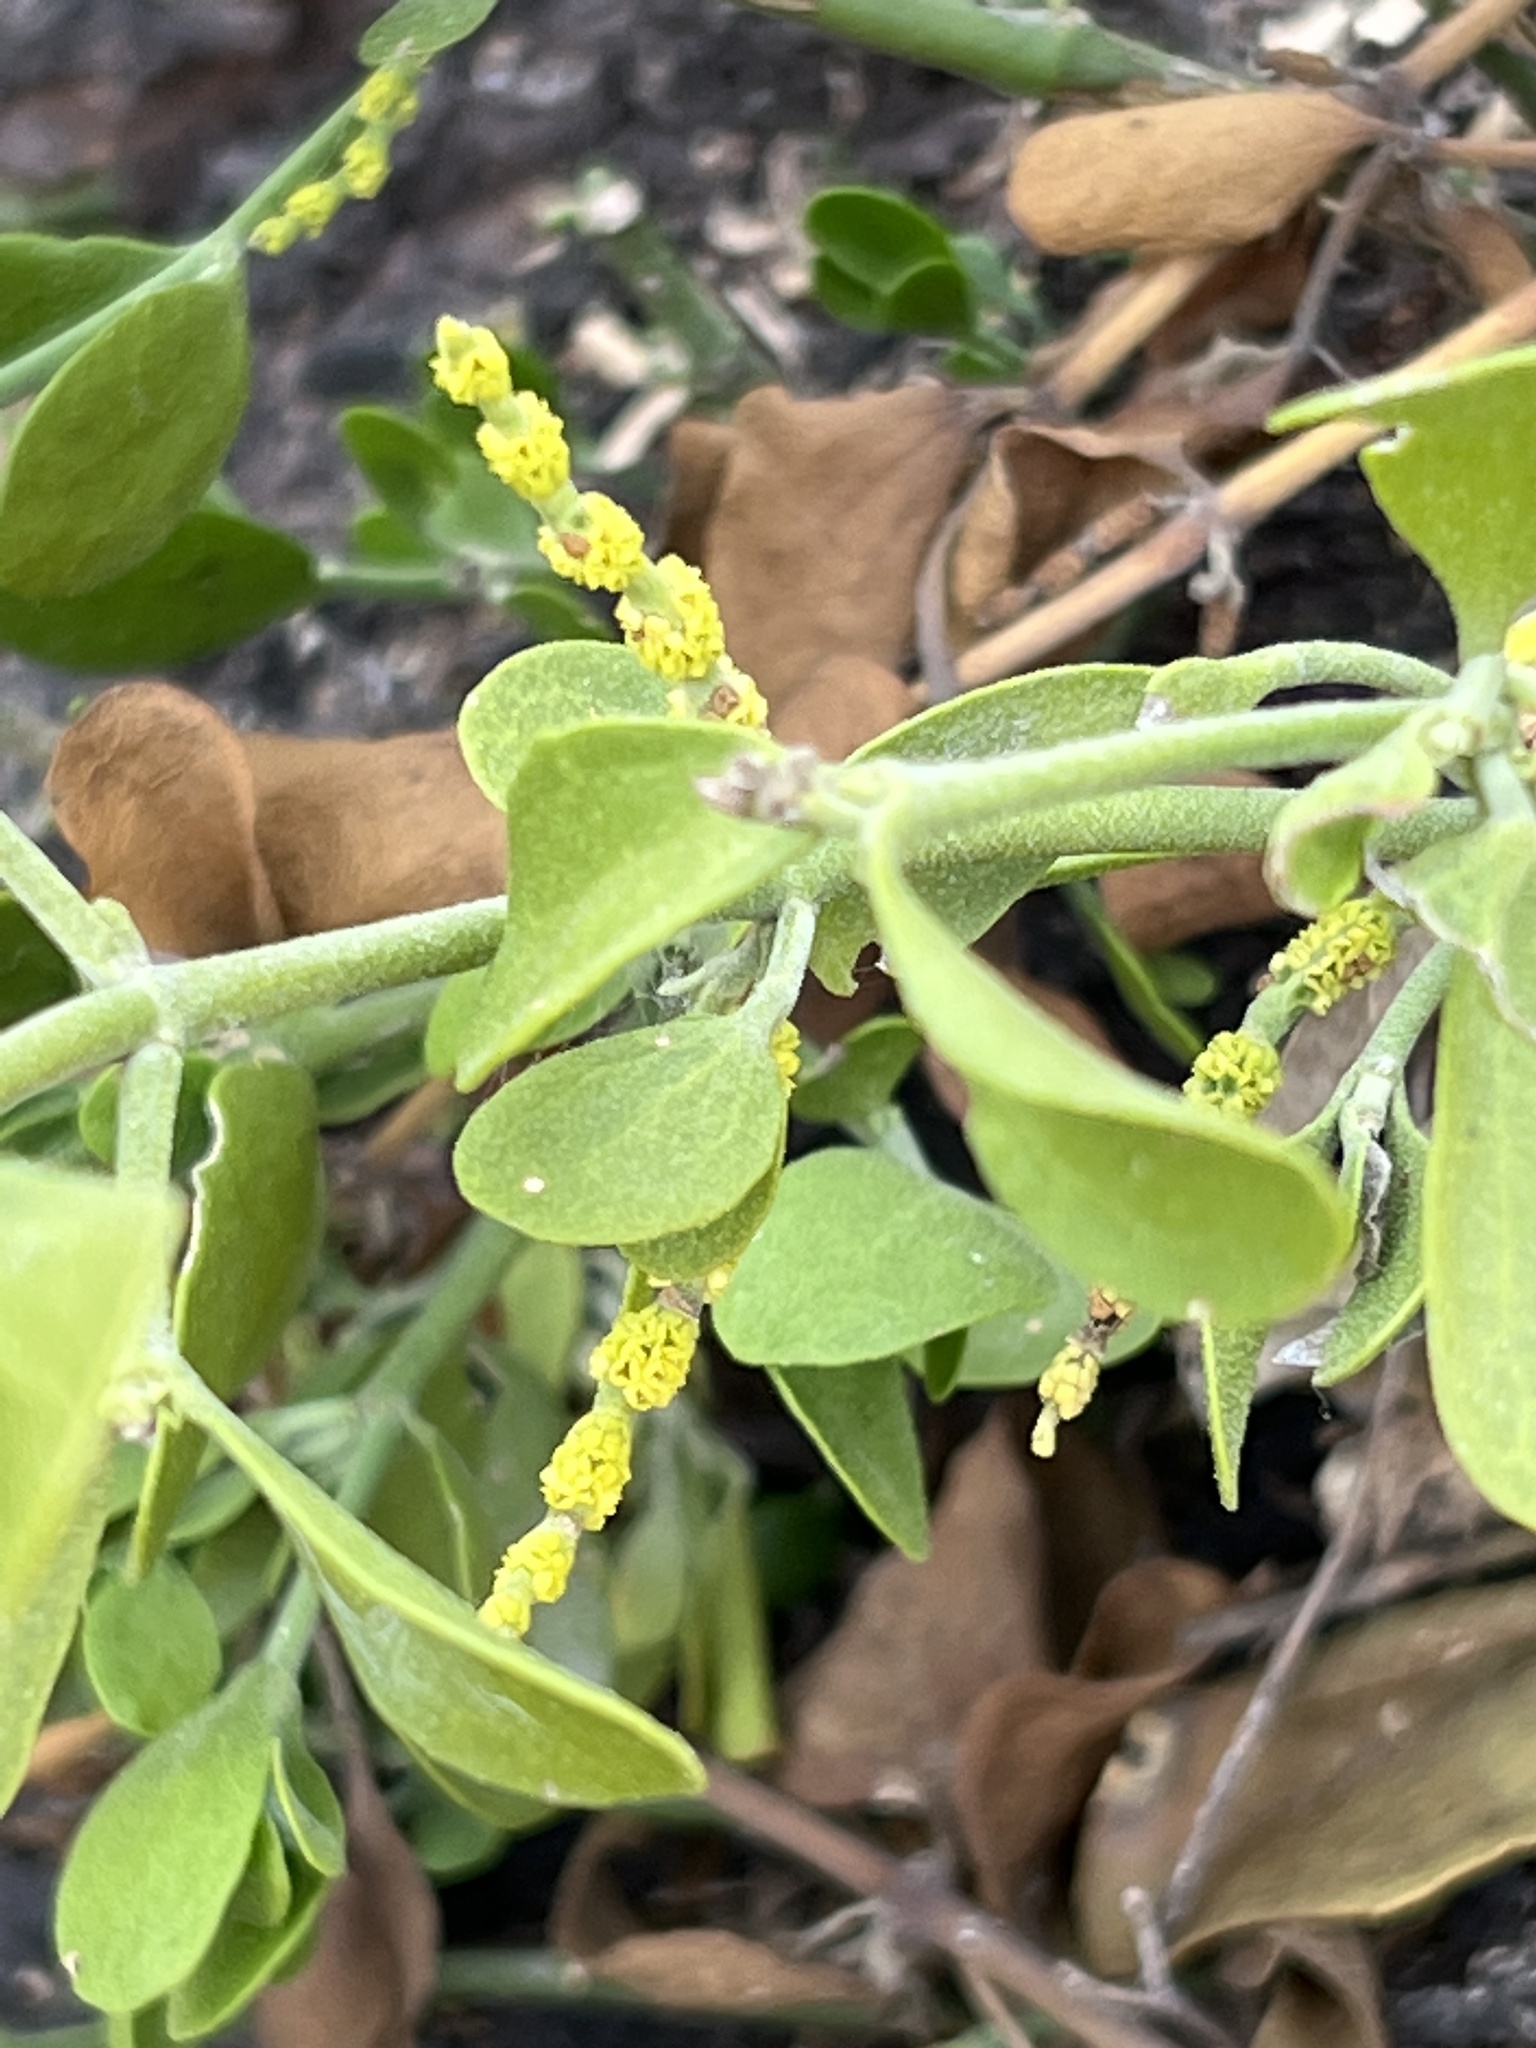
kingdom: Plantae
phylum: Tracheophyta
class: Magnoliopsida
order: Santalales
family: Viscaceae
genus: Phoradendron
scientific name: Phoradendron leucarpum
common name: Pacific mistletoe
